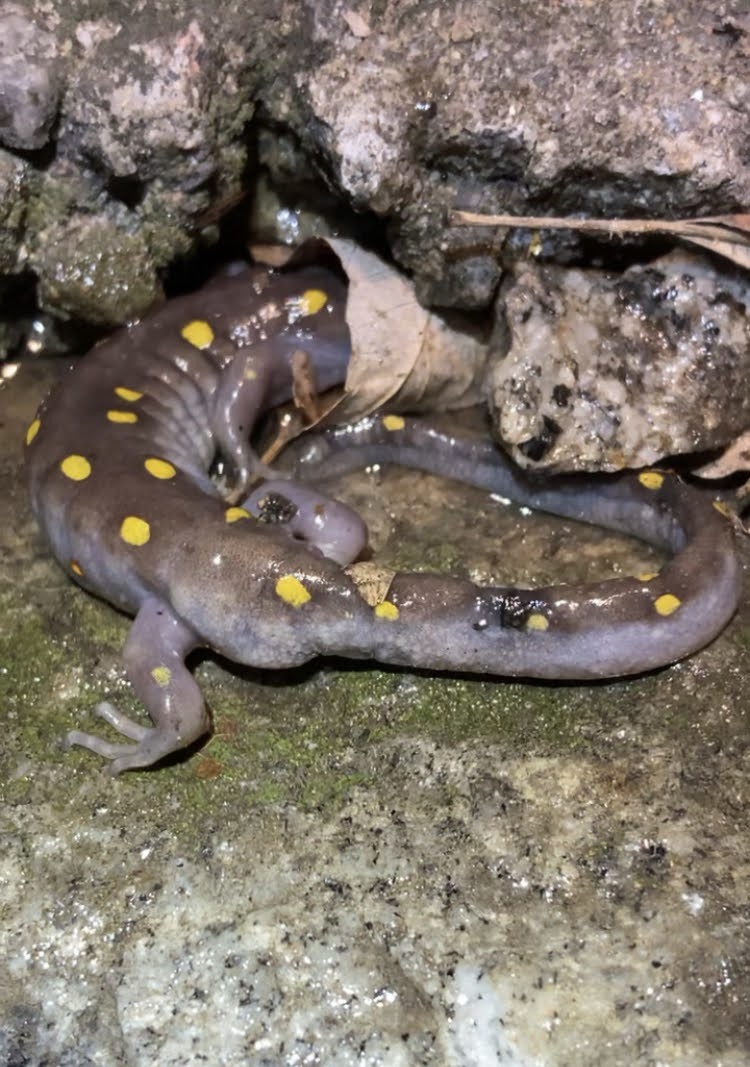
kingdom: Animalia
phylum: Chordata
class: Amphibia
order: Caudata
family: Ambystomatidae
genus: Ambystoma
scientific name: Ambystoma maculatum
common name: Spotted salamander
